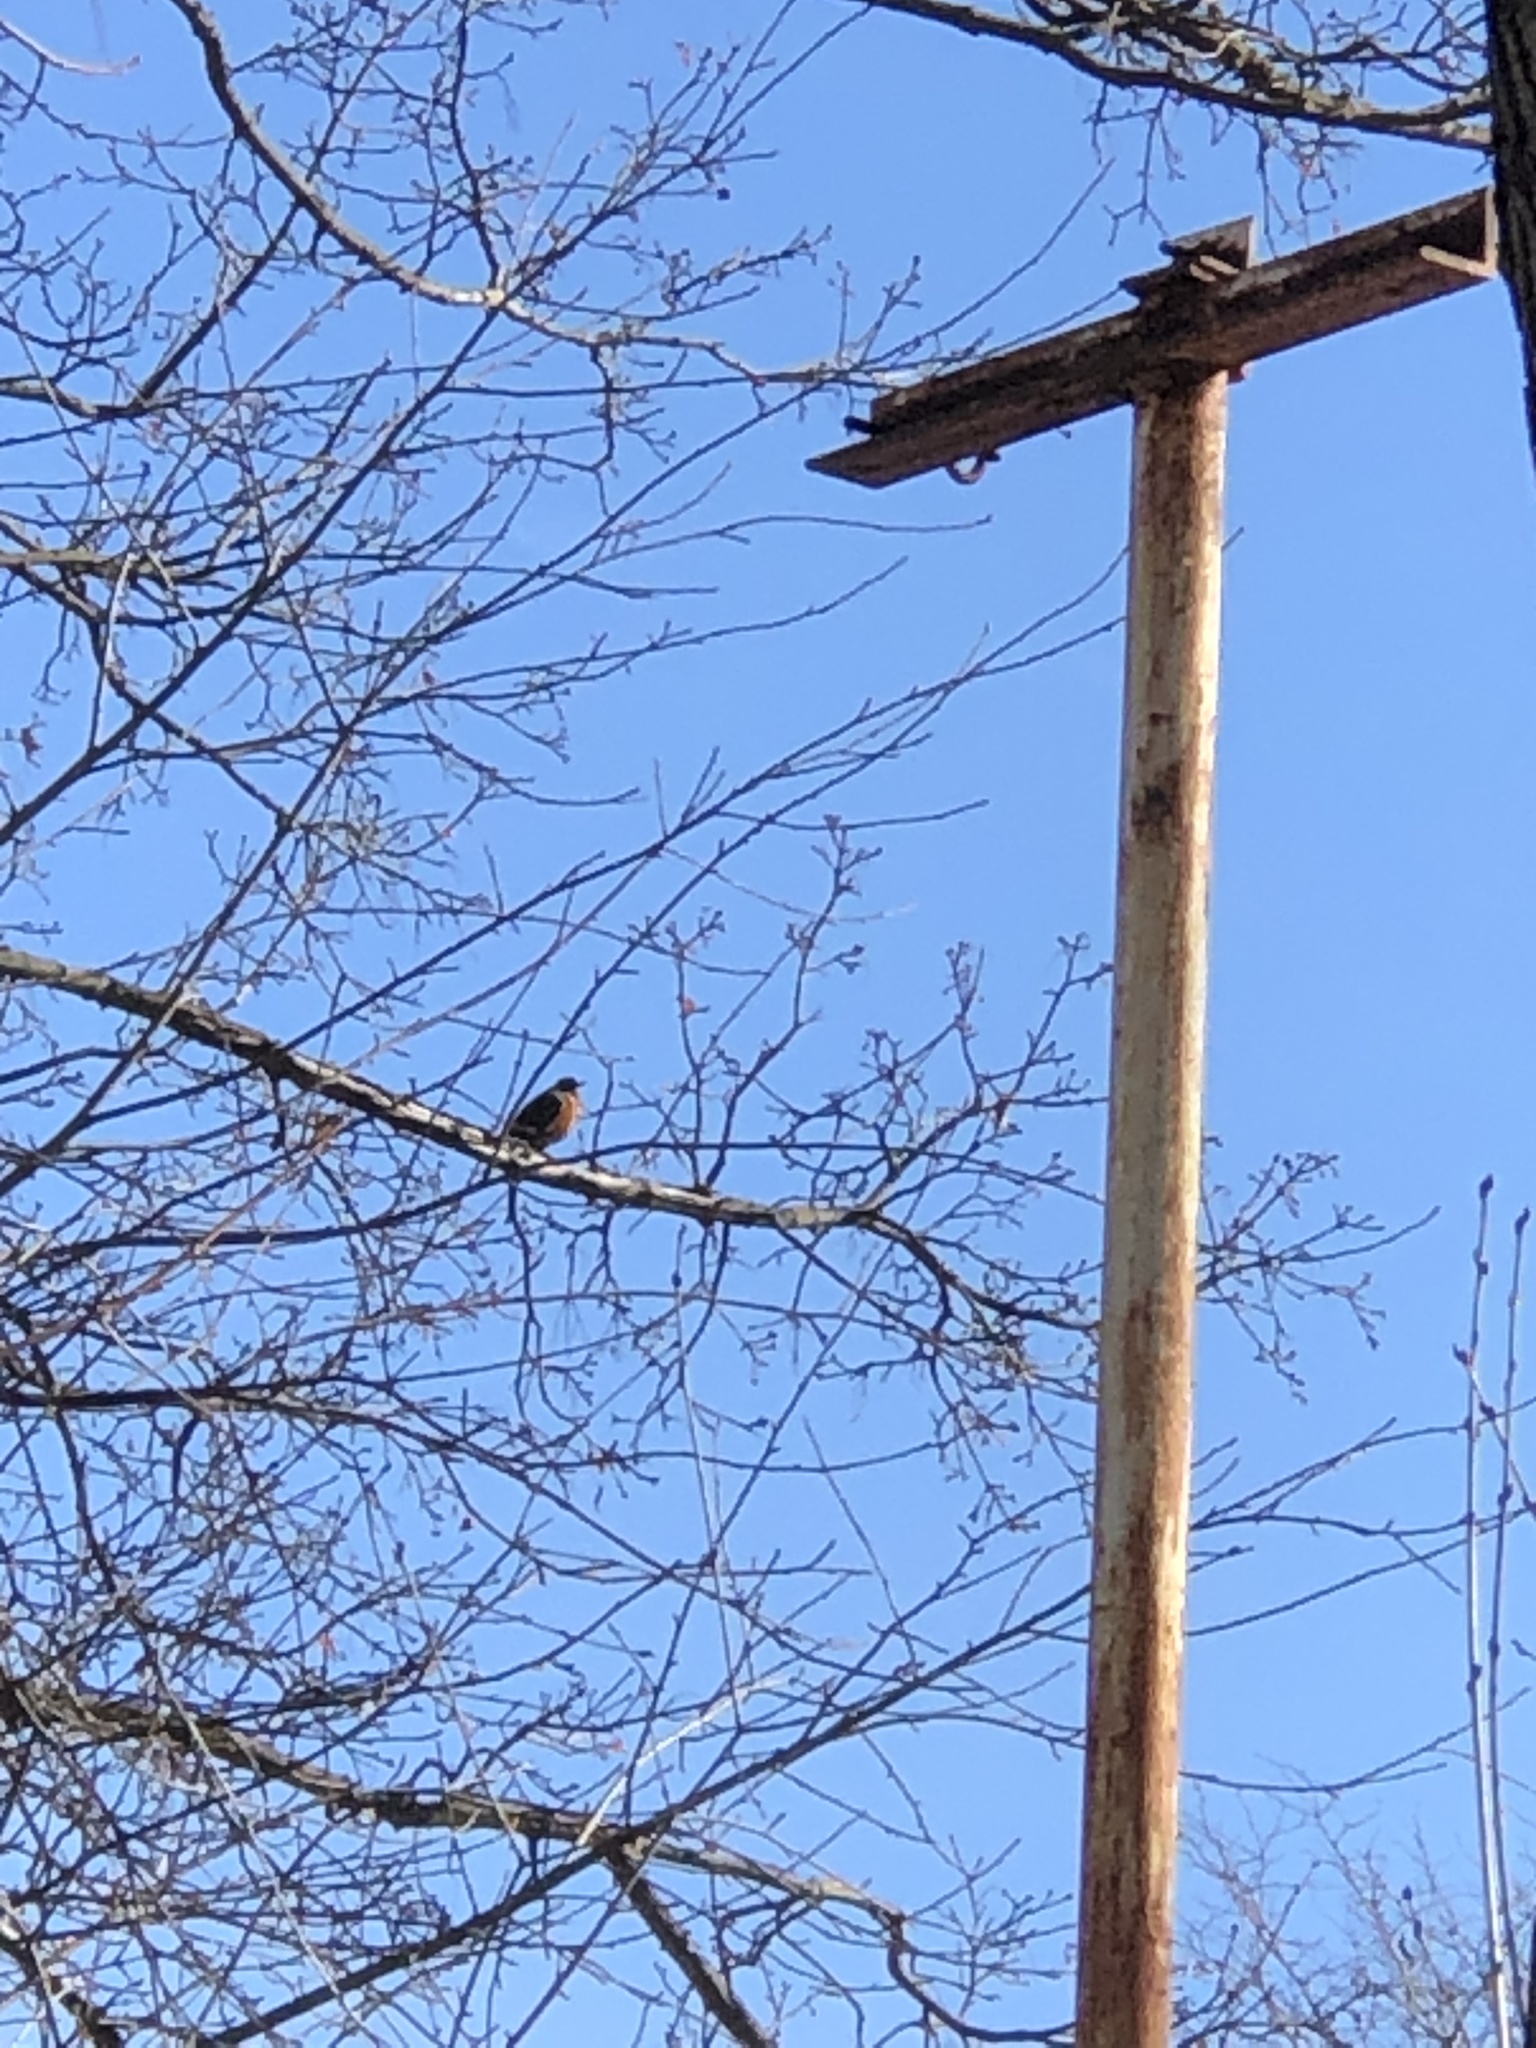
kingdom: Animalia
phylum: Chordata
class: Aves
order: Passeriformes
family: Turdidae
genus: Turdus
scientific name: Turdus migratorius
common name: American robin
